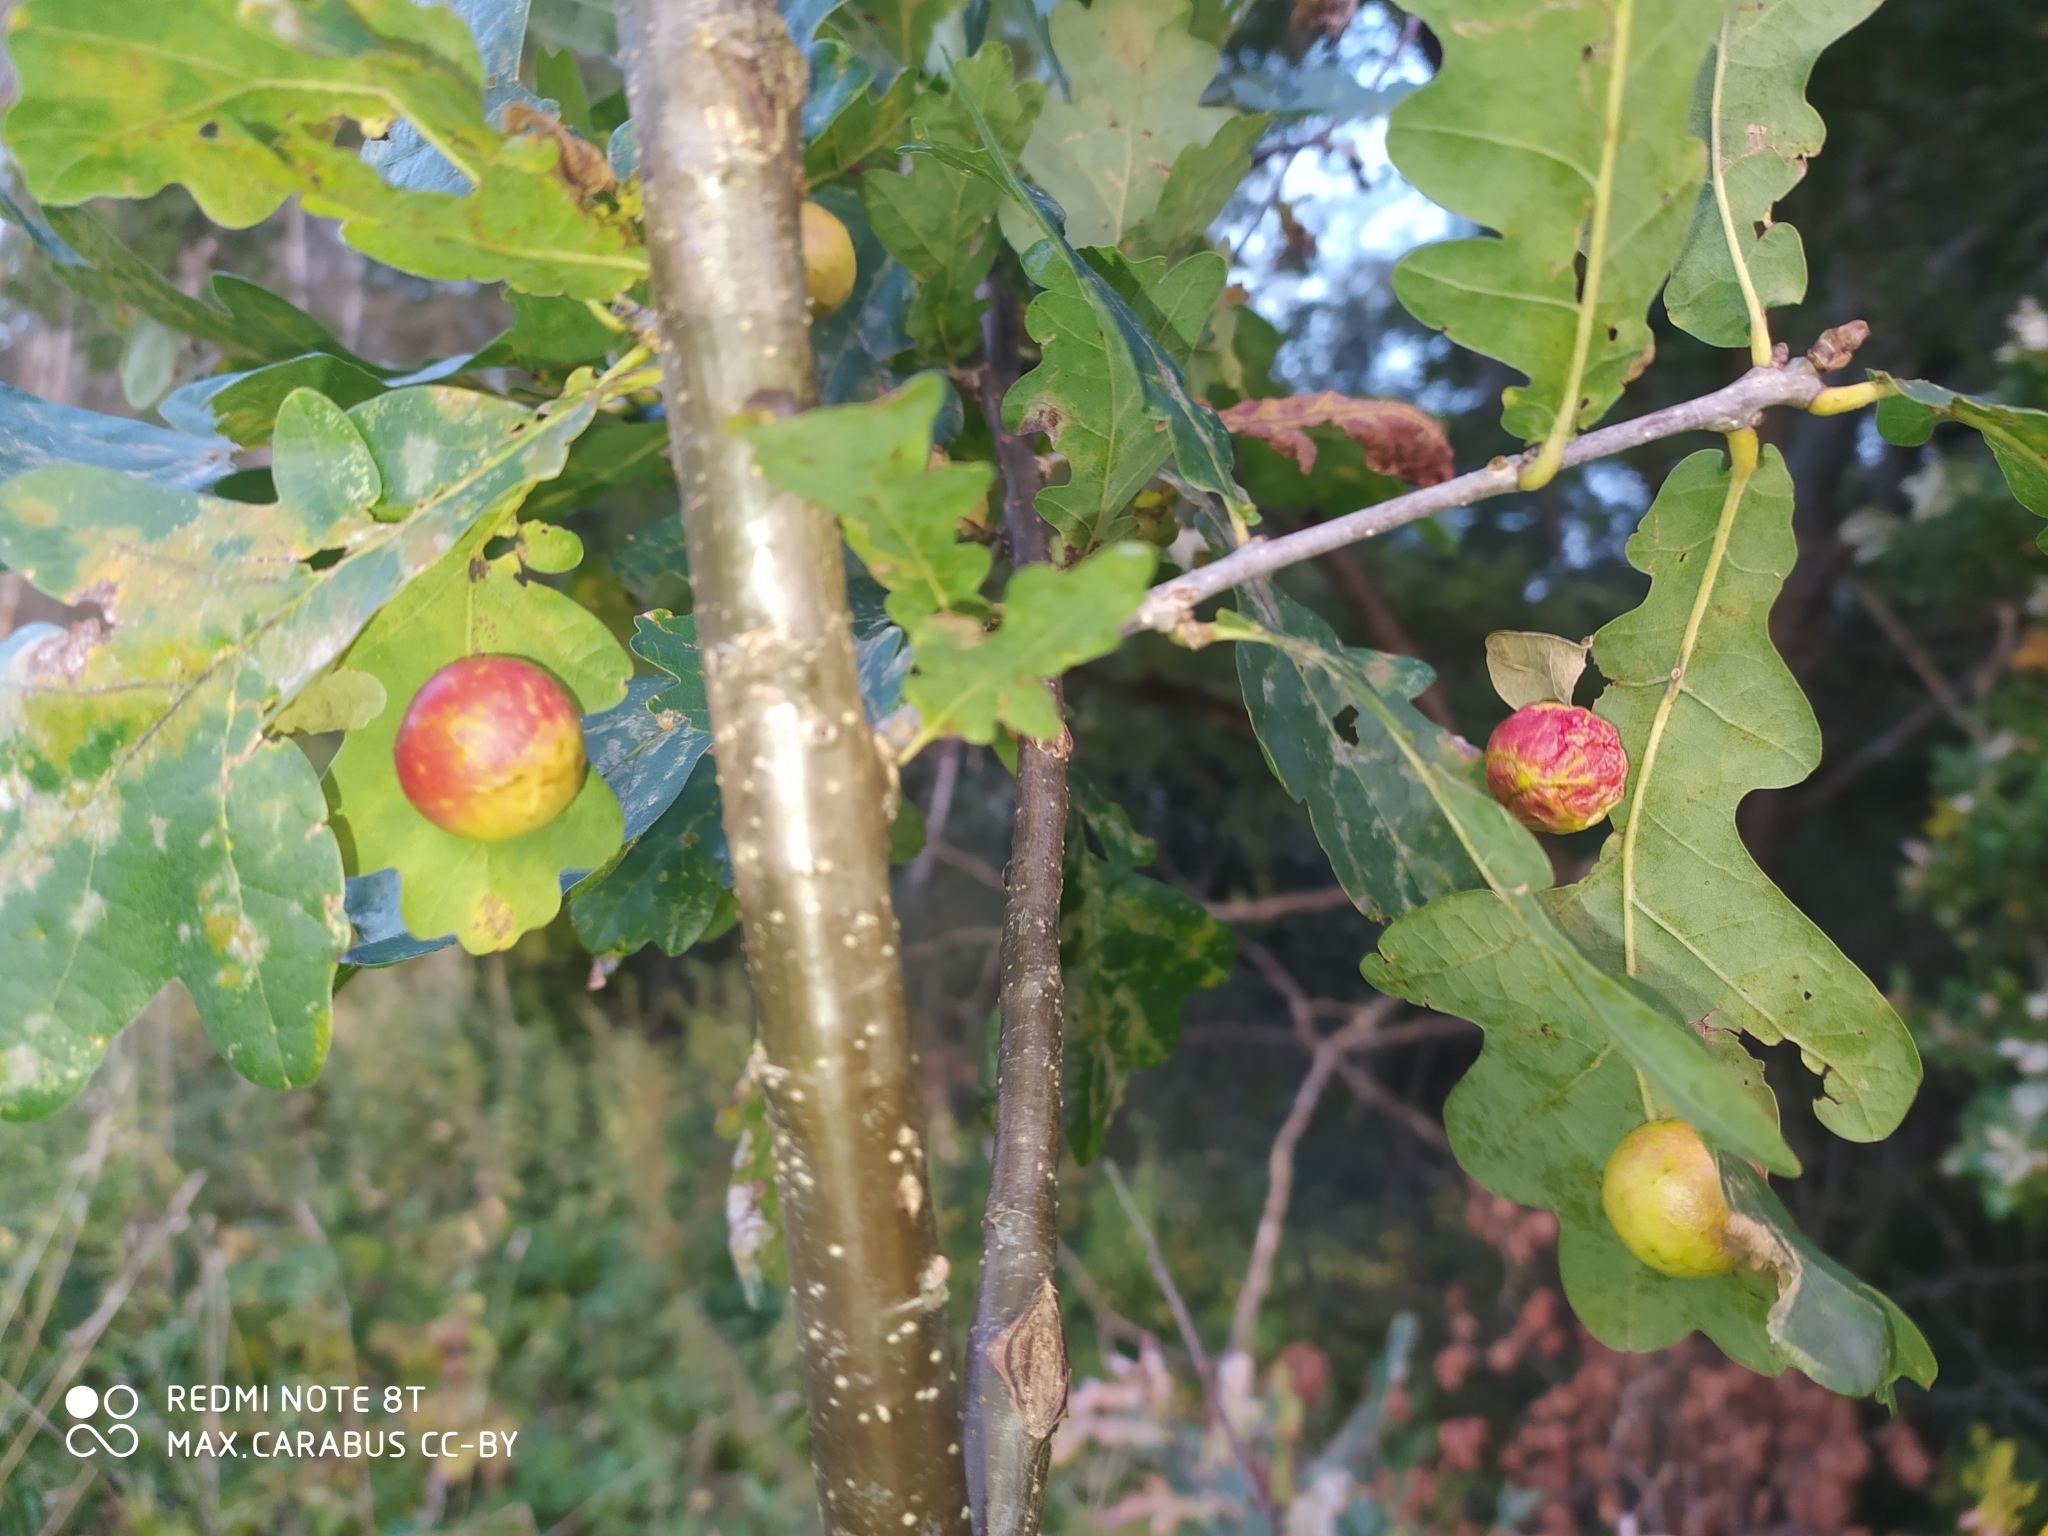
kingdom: Animalia
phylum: Arthropoda
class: Insecta
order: Hymenoptera
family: Cynipidae
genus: Cynips
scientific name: Cynips quercusfolii
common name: Cherry gall
